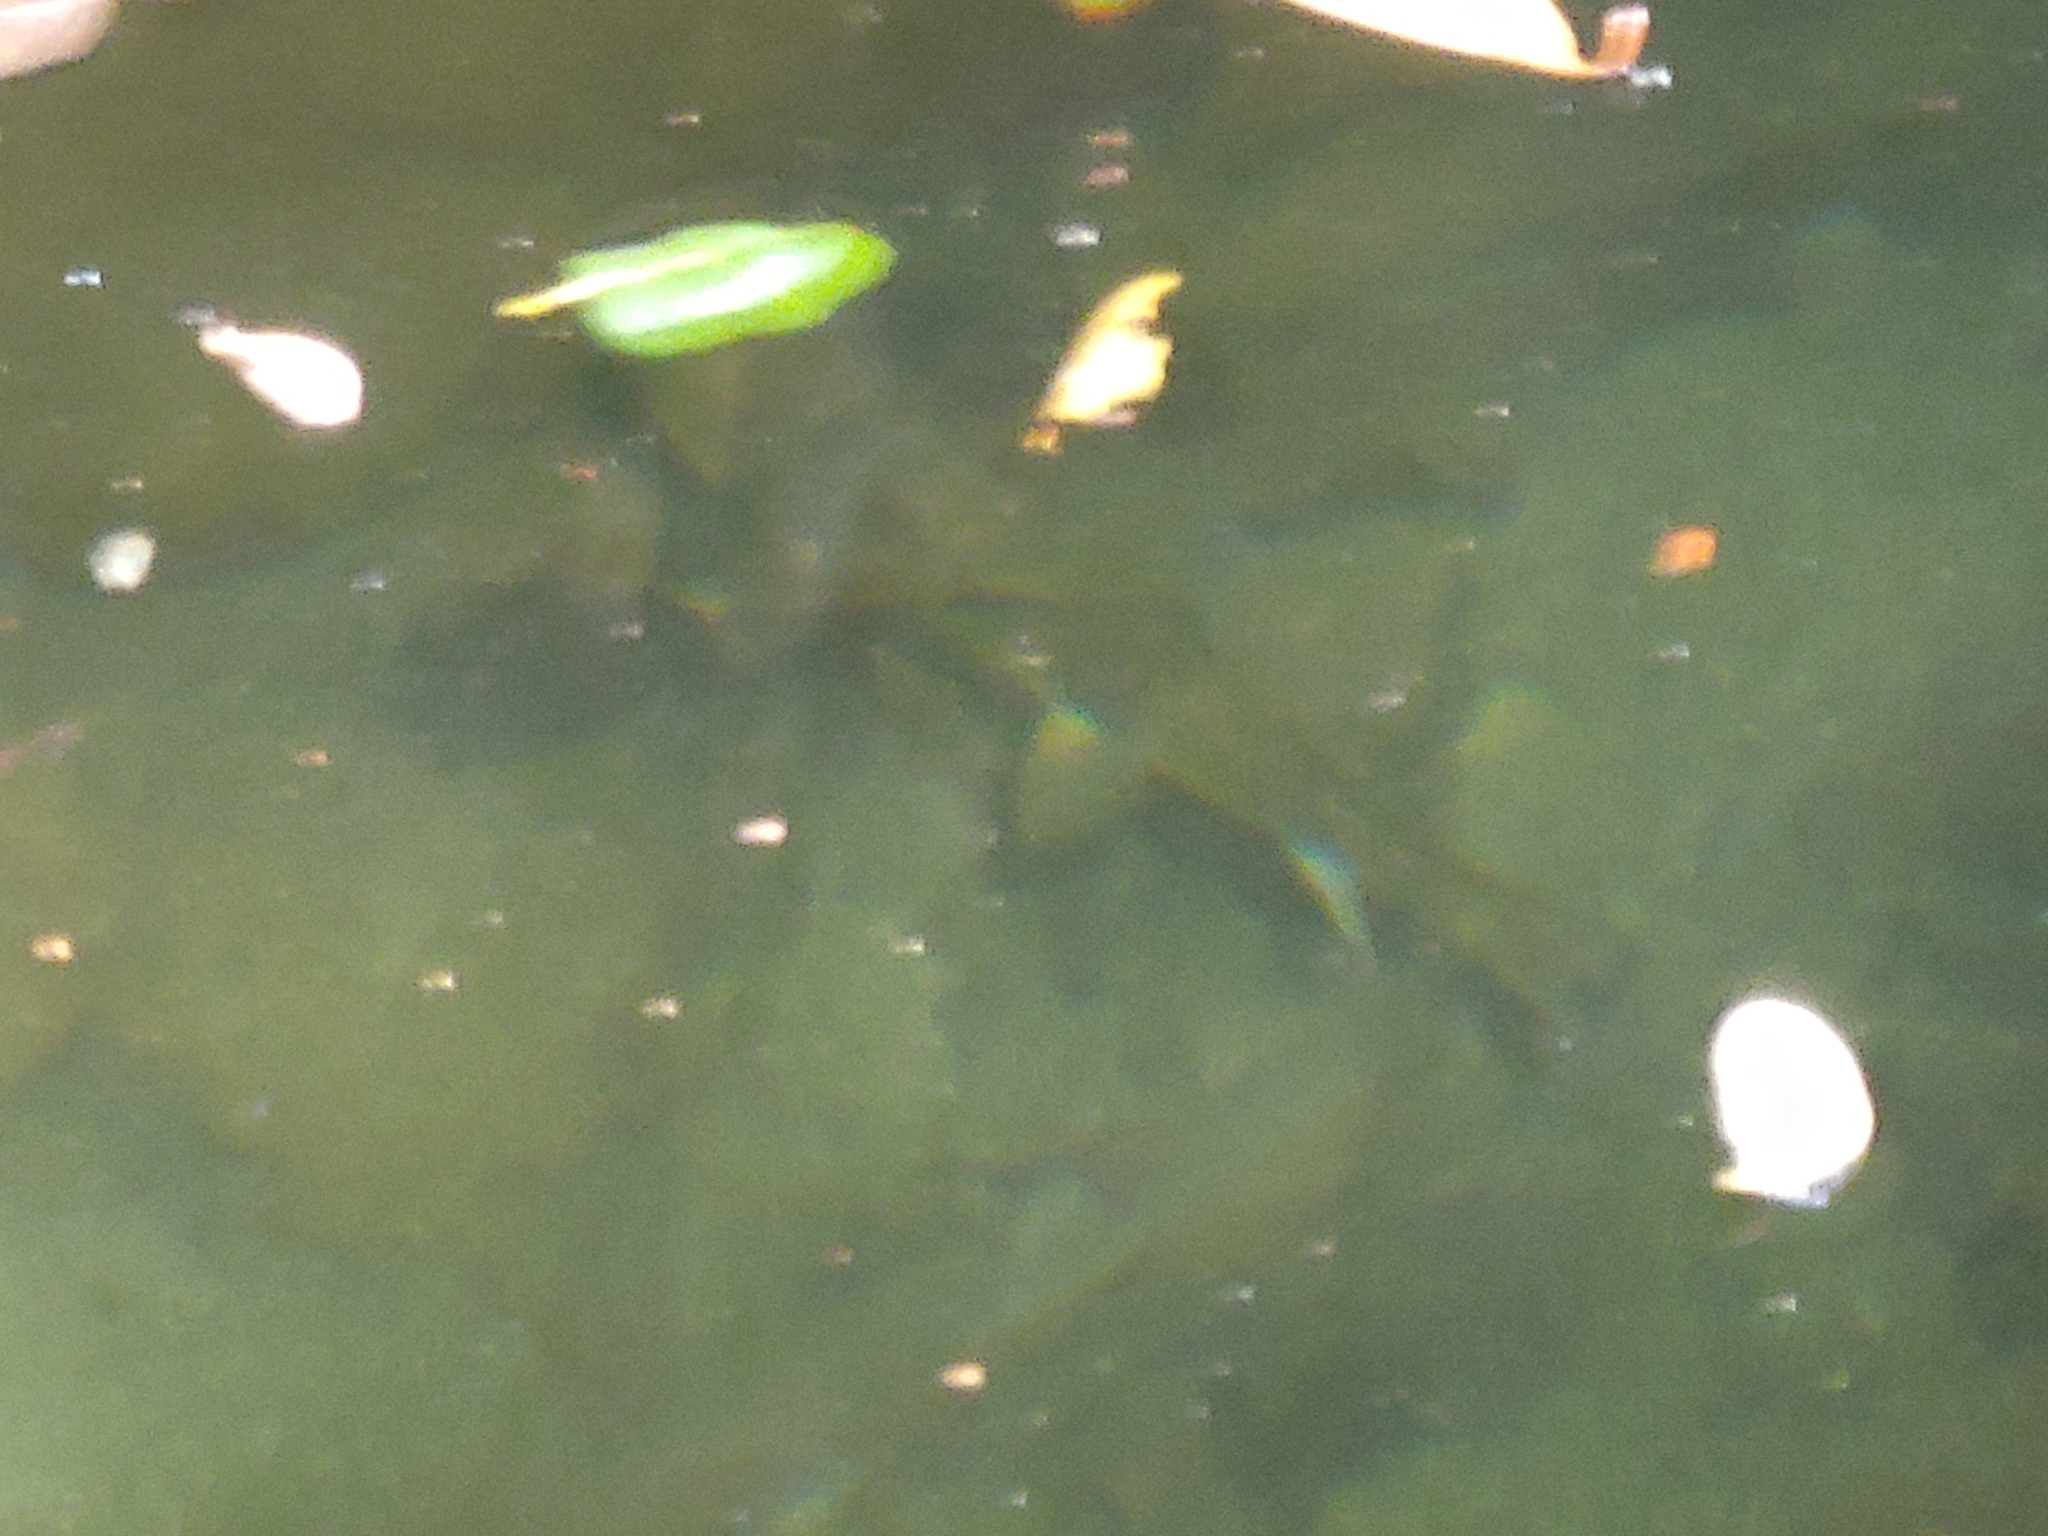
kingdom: Animalia
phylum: Chordata
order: Cypriniformes
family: Catostomidae
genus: Catostomus
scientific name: Catostomus occidentalis
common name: Goose lake sucker
